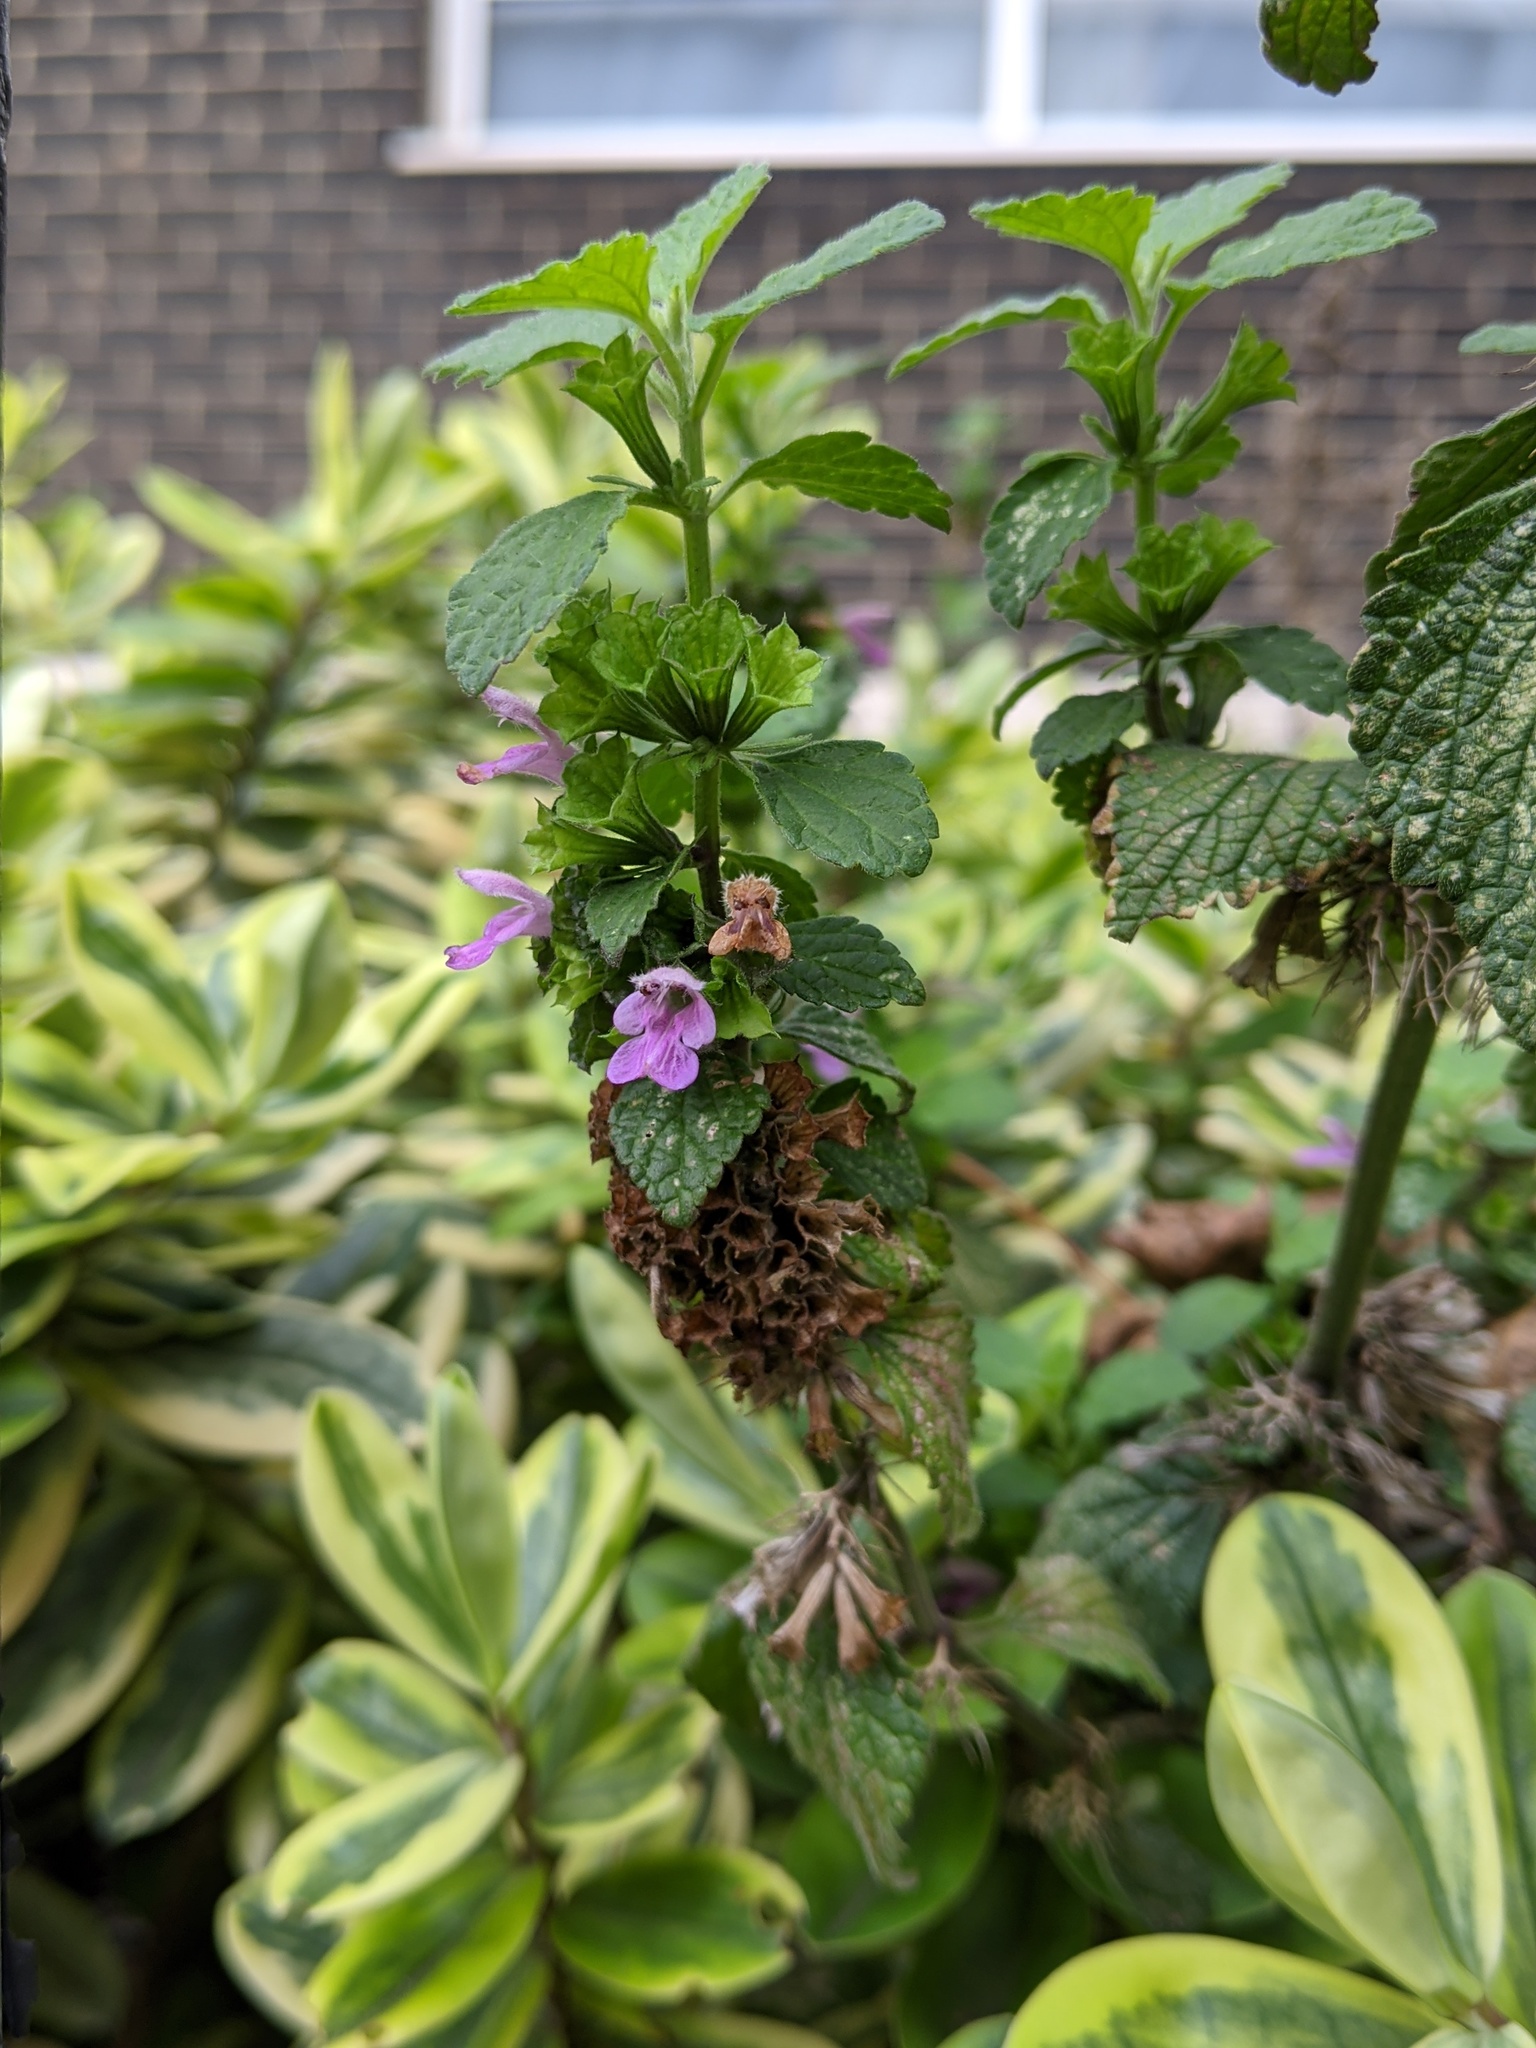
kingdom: Plantae
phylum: Tracheophyta
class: Magnoliopsida
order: Lamiales
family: Lamiaceae
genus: Ballota
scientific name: Ballota nigra
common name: Black horehound
